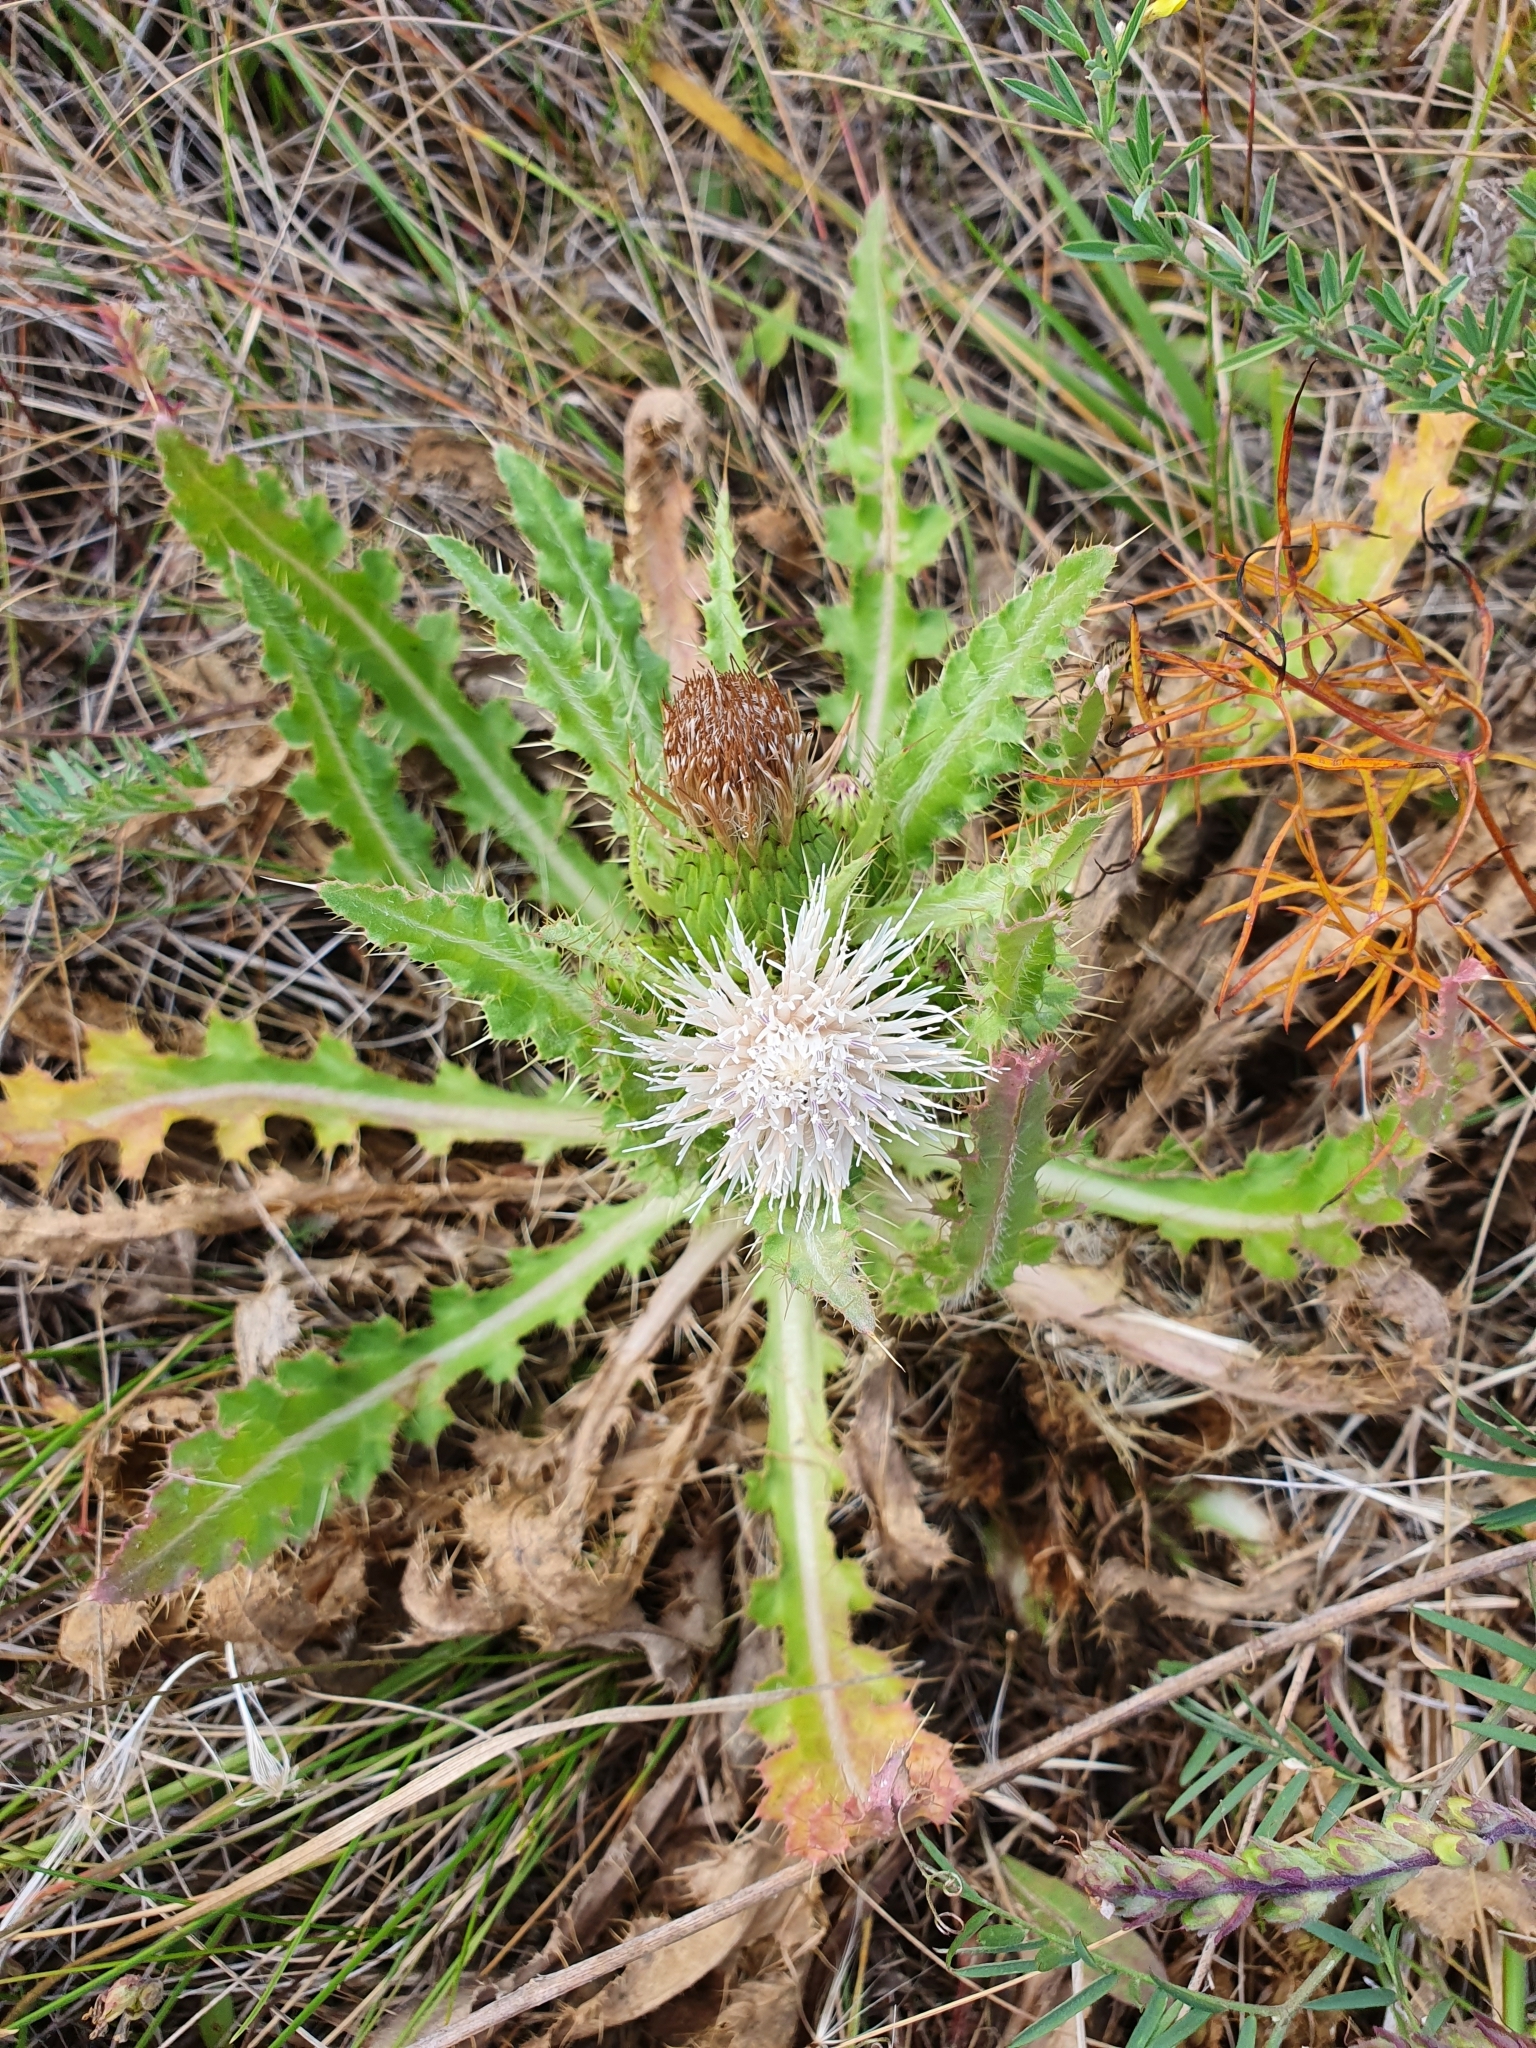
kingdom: Plantae
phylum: Tracheophyta
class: Magnoliopsida
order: Asterales
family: Asteraceae
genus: Cirsium
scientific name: Cirsium esculentum
